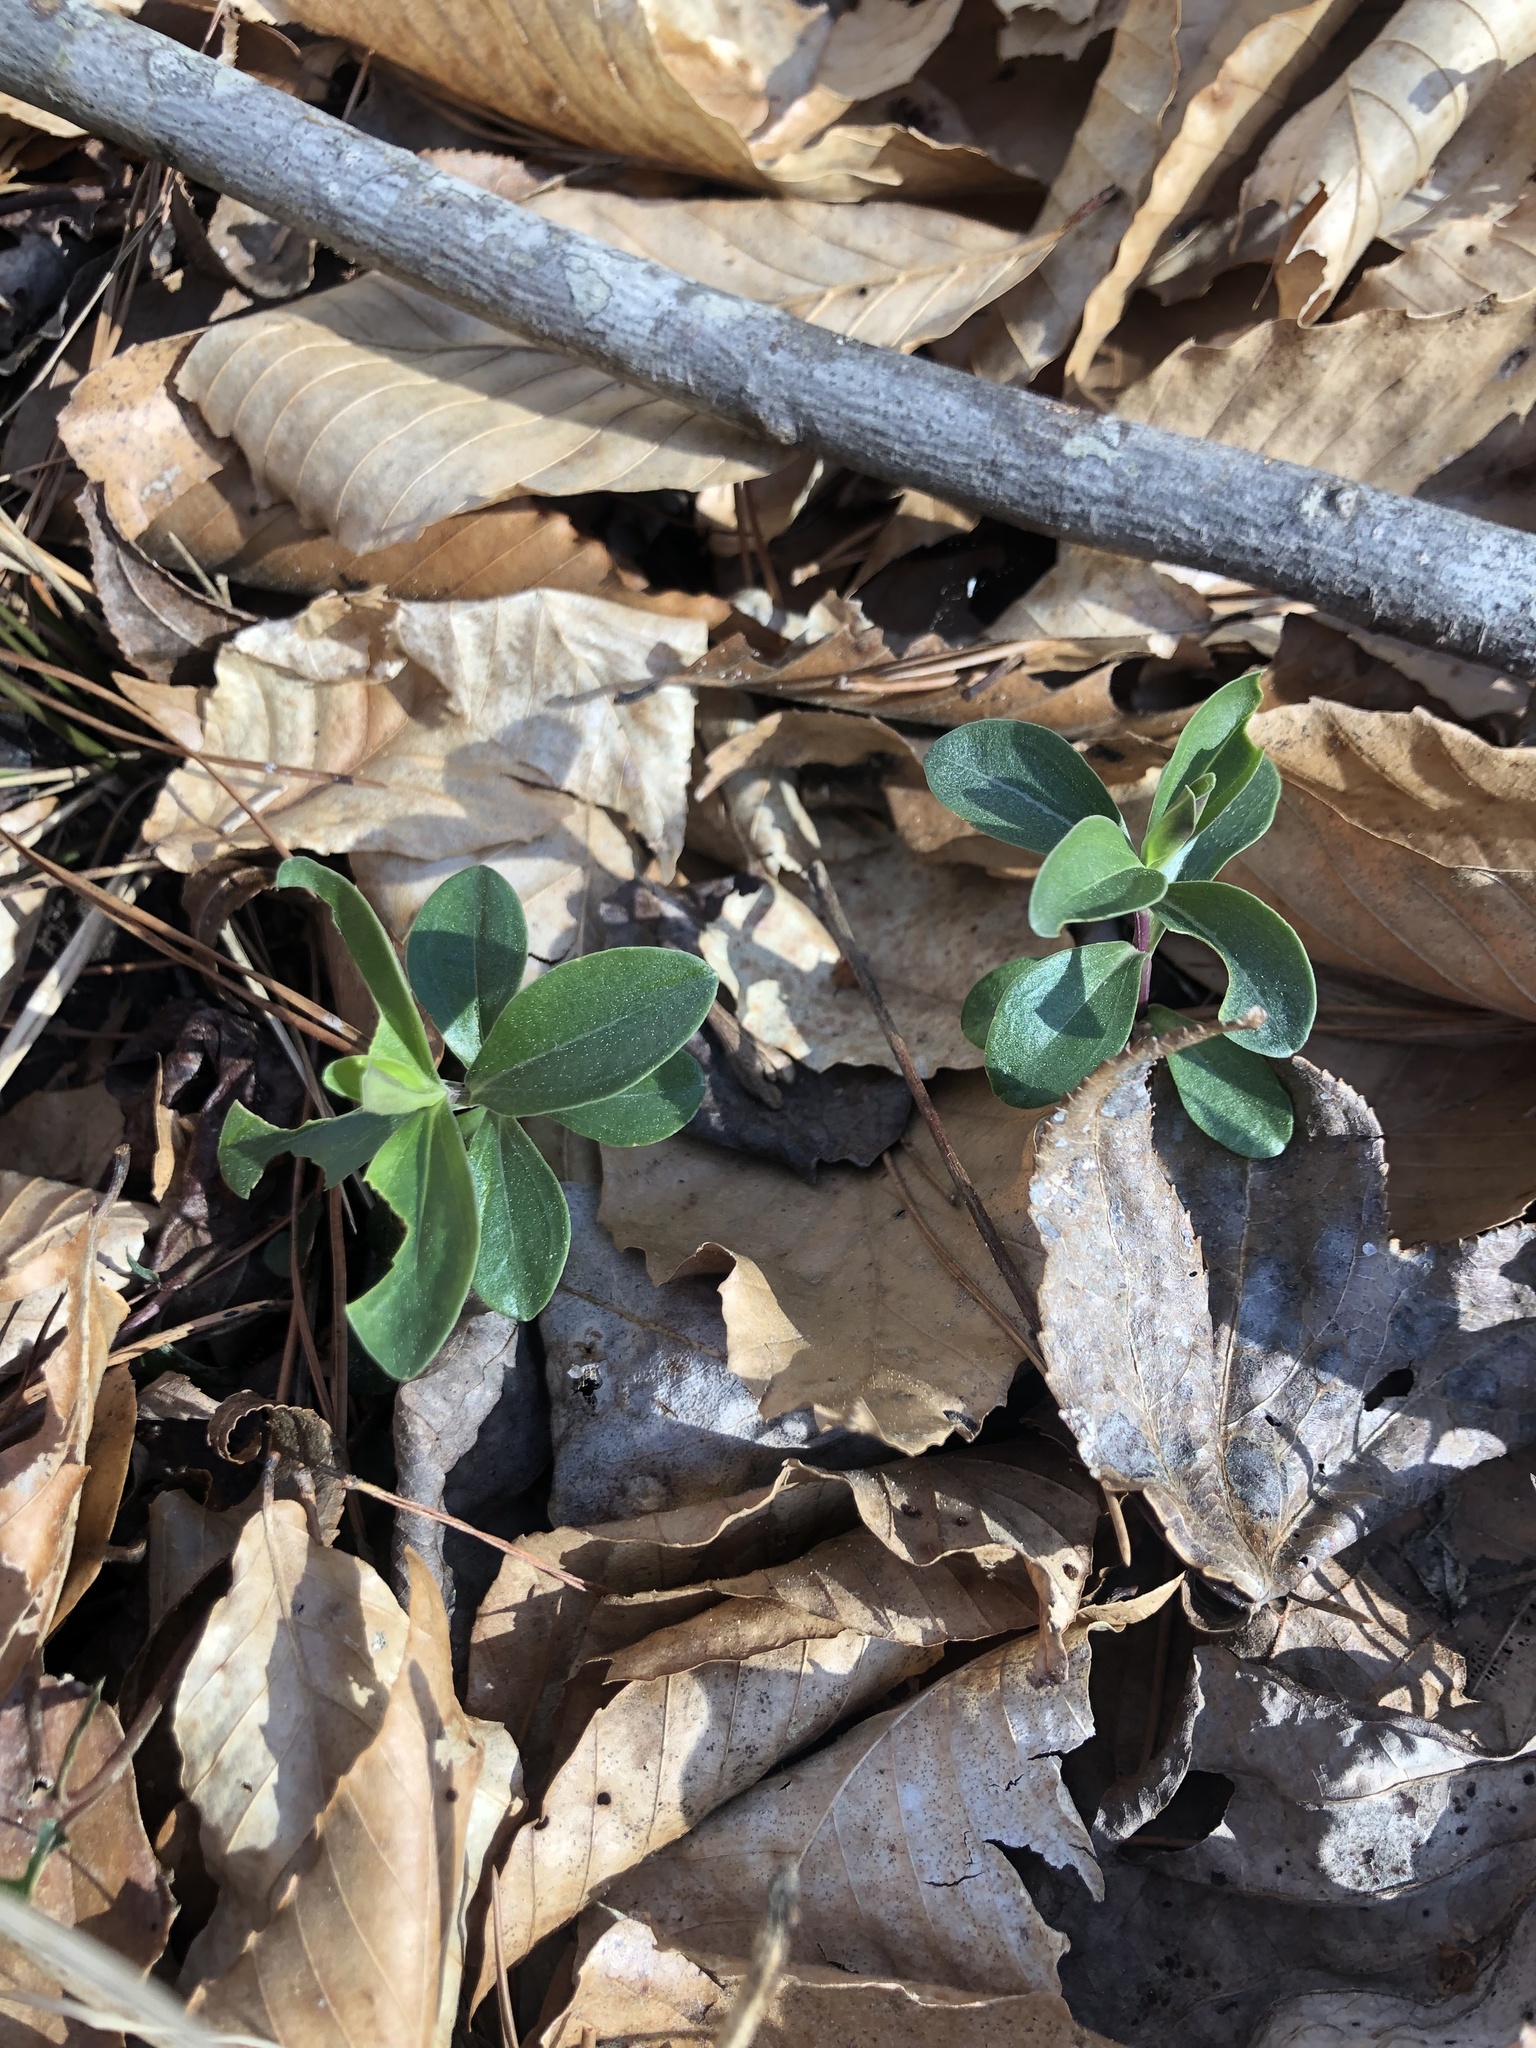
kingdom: Plantae
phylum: Tracheophyta
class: Magnoliopsida
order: Gentianales
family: Gentianaceae
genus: Gentiana
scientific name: Gentiana villosa
